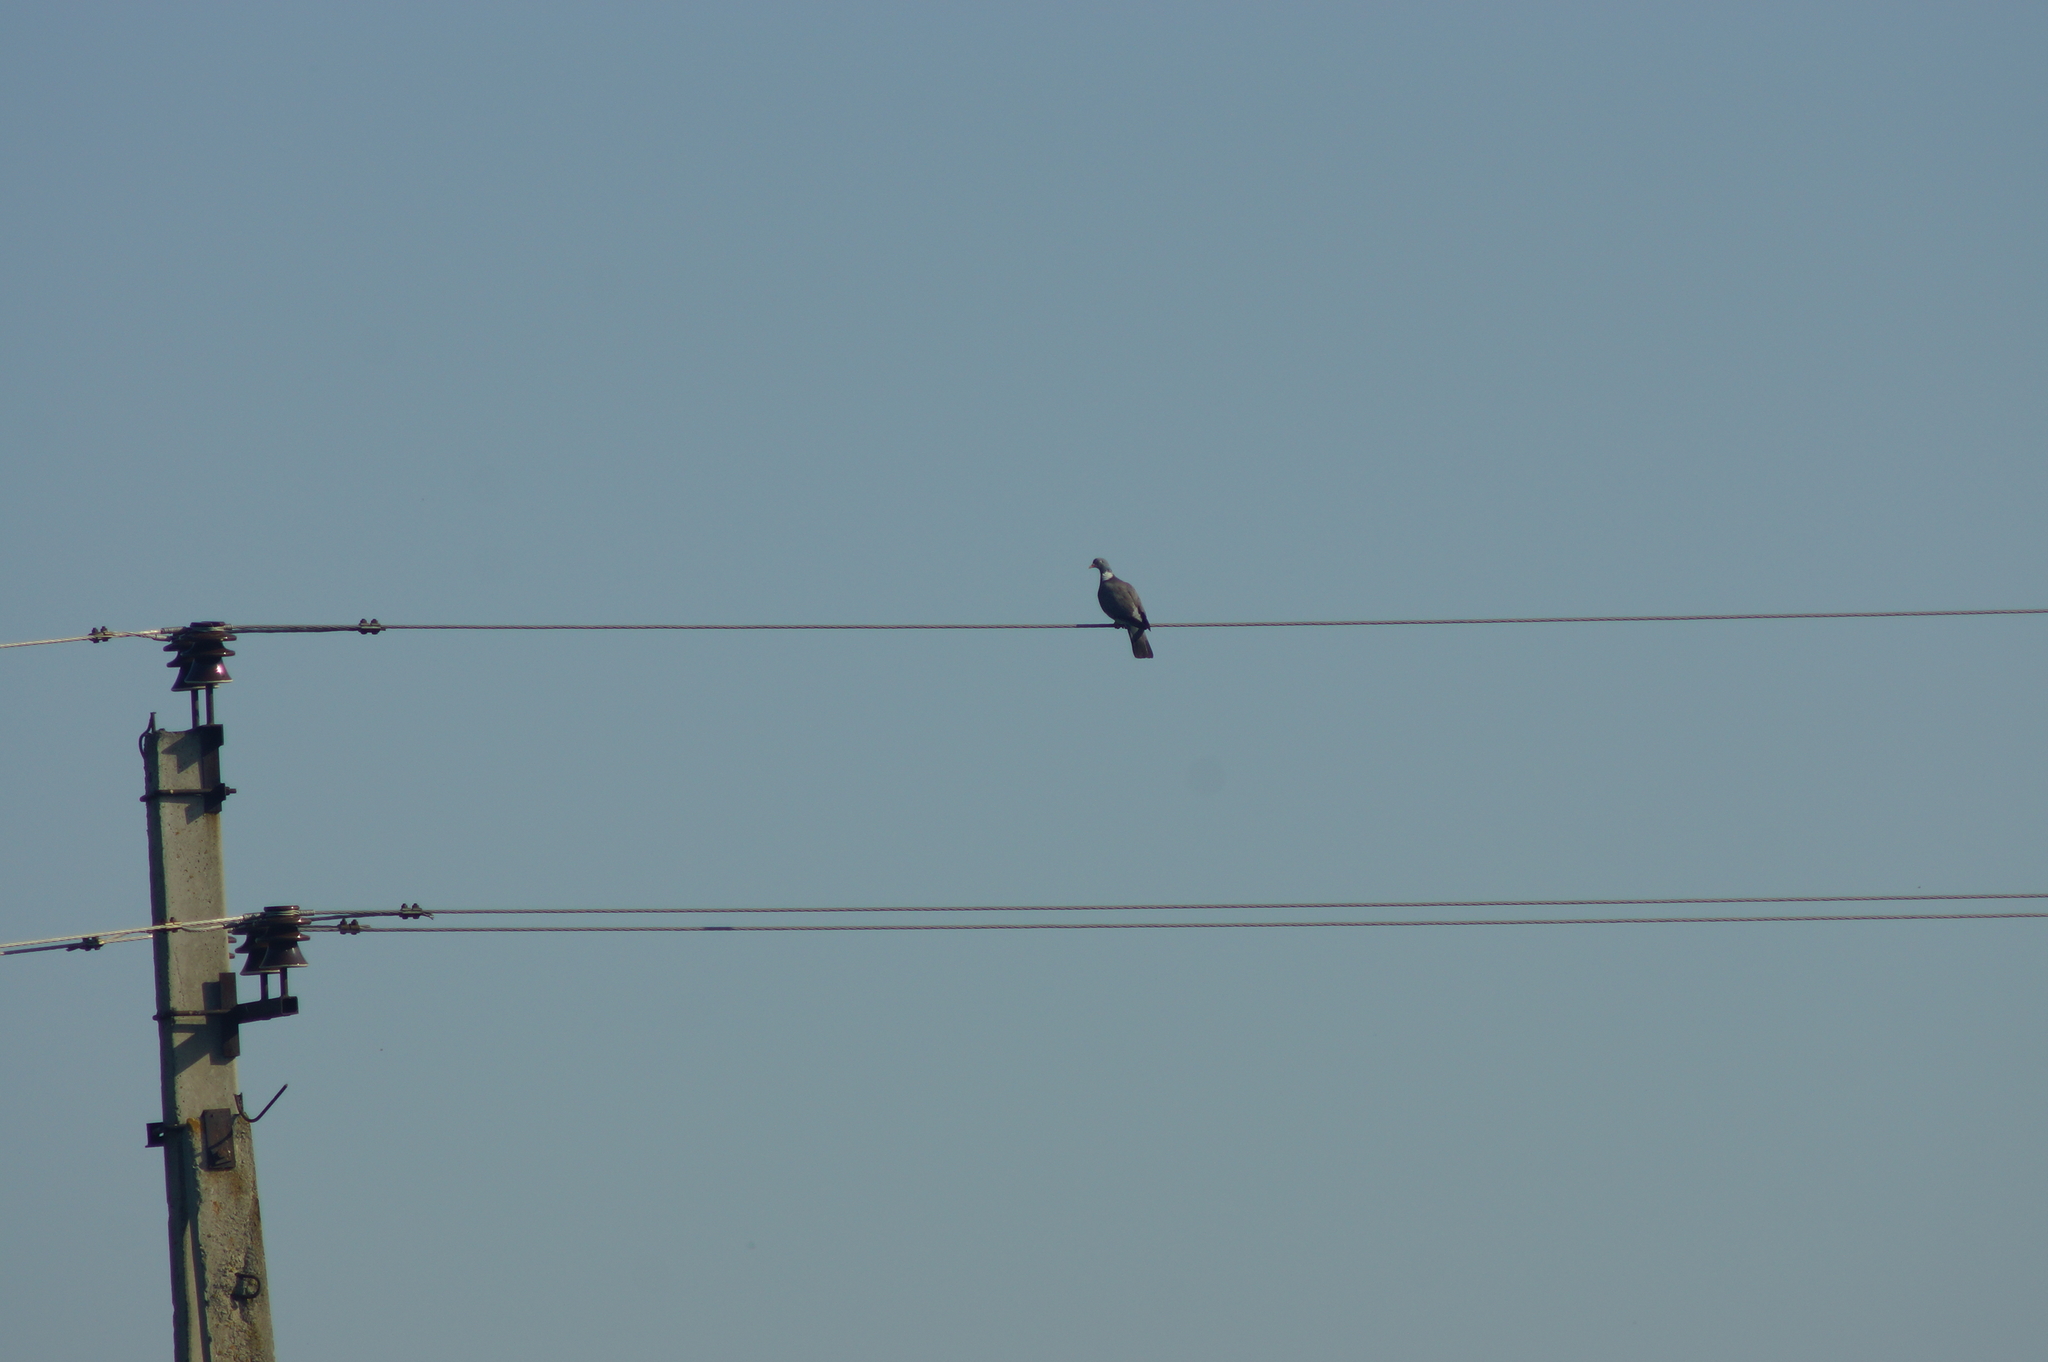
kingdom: Animalia
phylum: Chordata
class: Aves
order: Columbiformes
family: Columbidae
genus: Columba
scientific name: Columba palumbus
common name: Common wood pigeon
